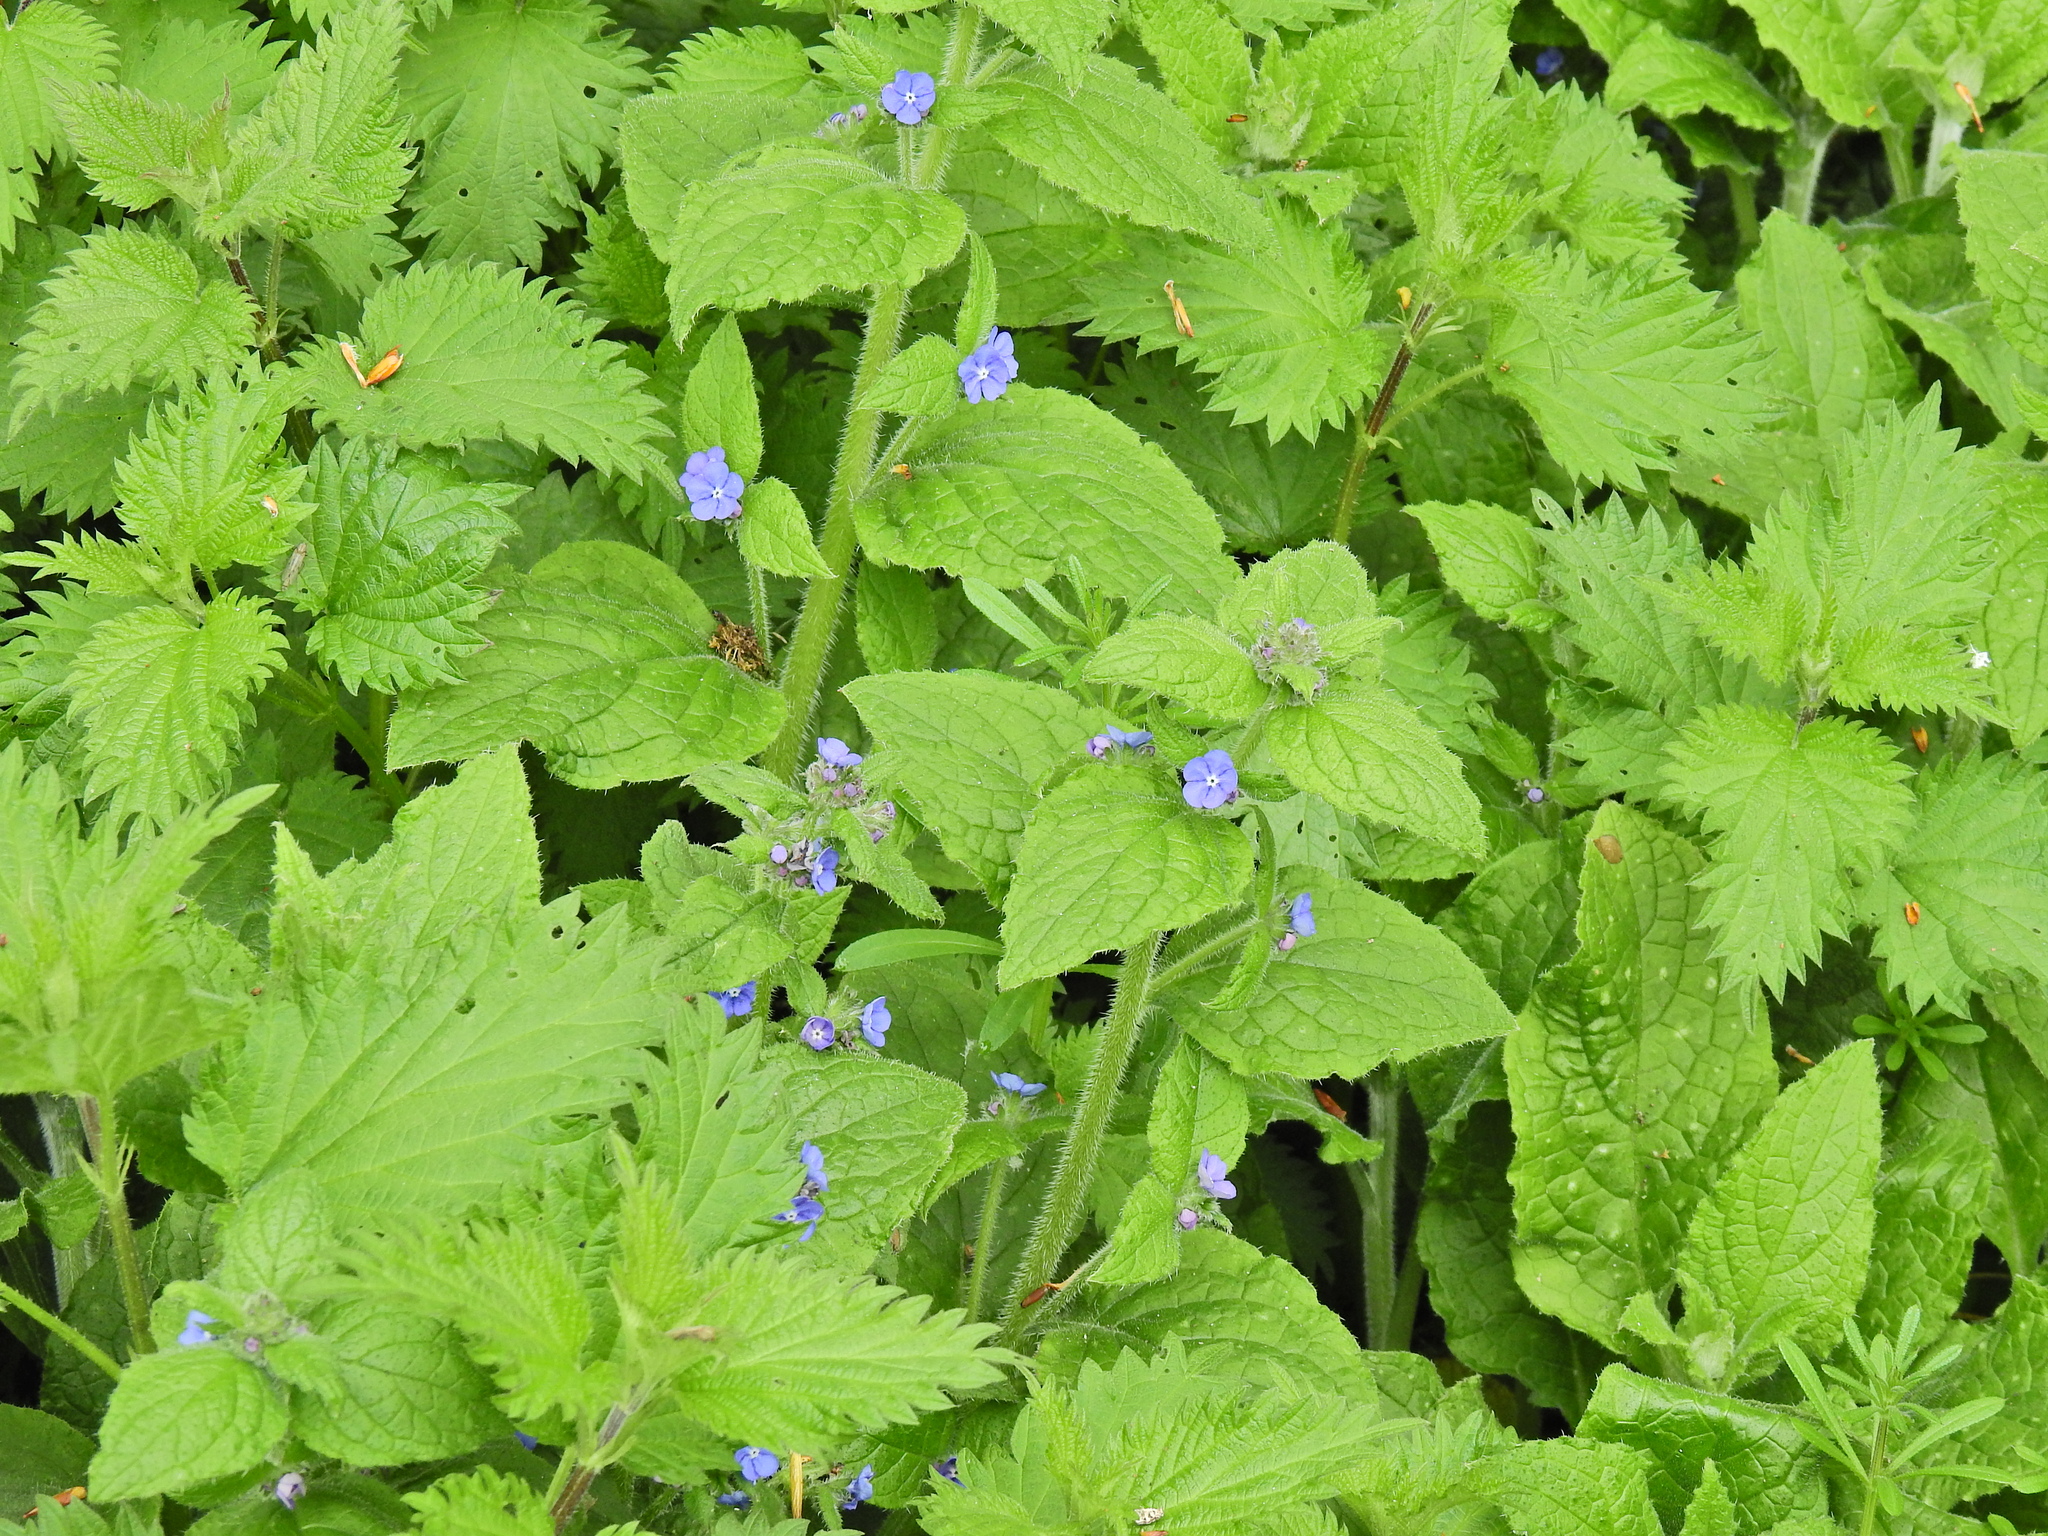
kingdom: Plantae
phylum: Tracheophyta
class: Magnoliopsida
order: Boraginales
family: Boraginaceae
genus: Pentaglottis
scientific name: Pentaglottis sempervirens
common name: Green alkanet
